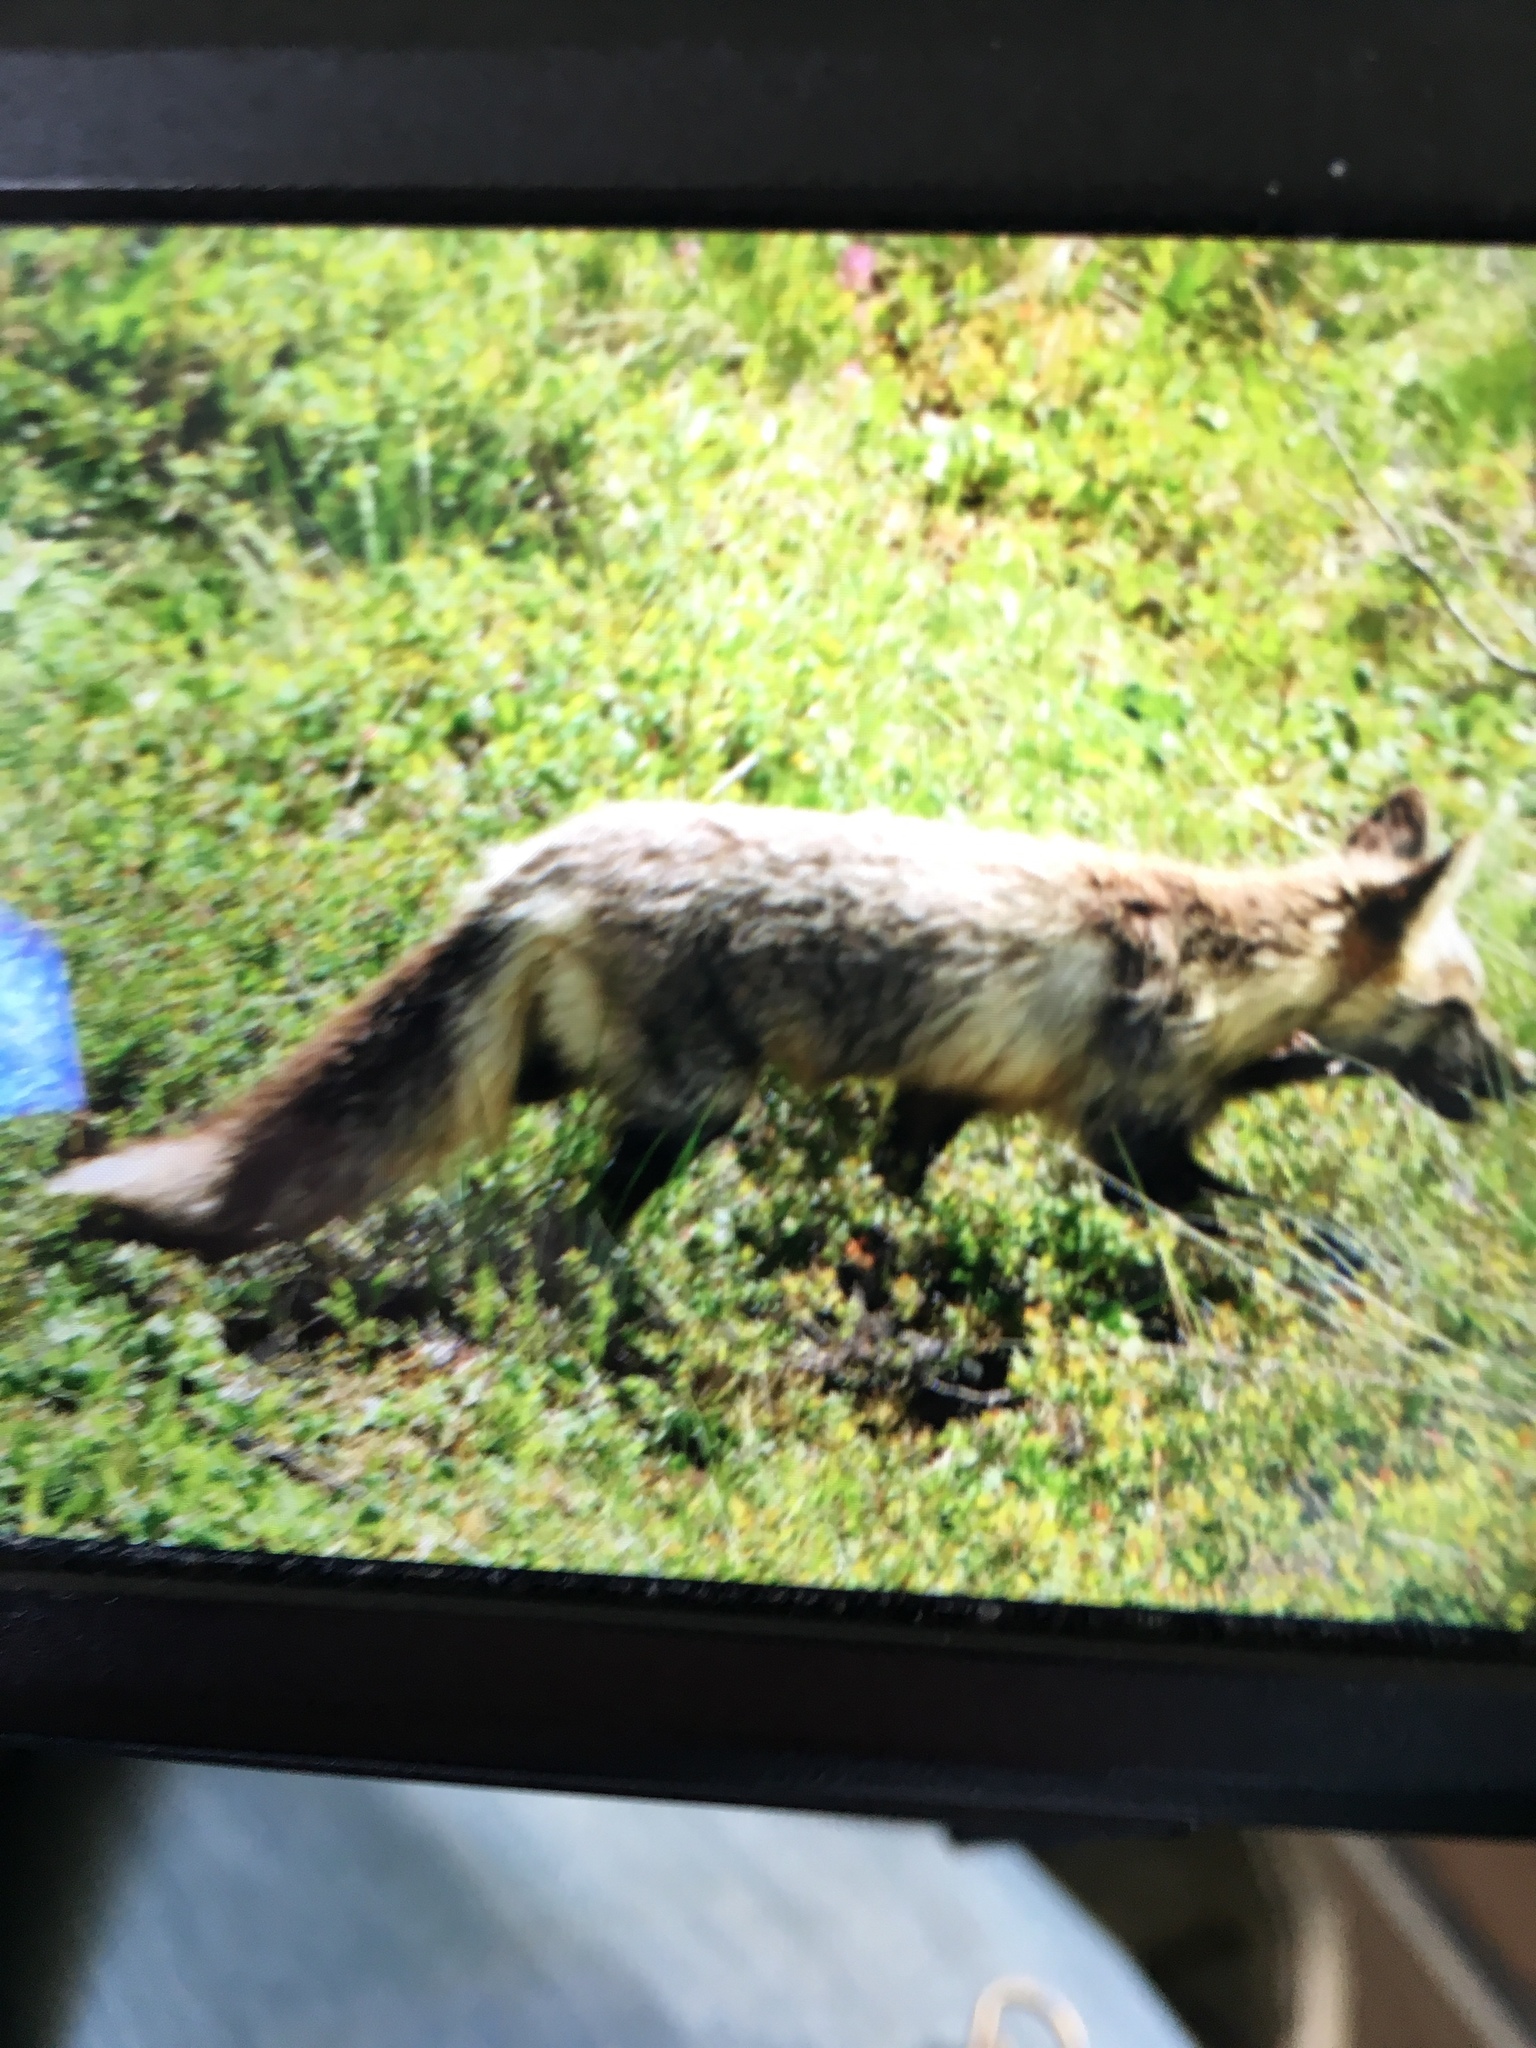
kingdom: Animalia
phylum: Chordata
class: Mammalia
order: Carnivora
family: Canidae
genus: Vulpes
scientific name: Vulpes vulpes
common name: Red fox
